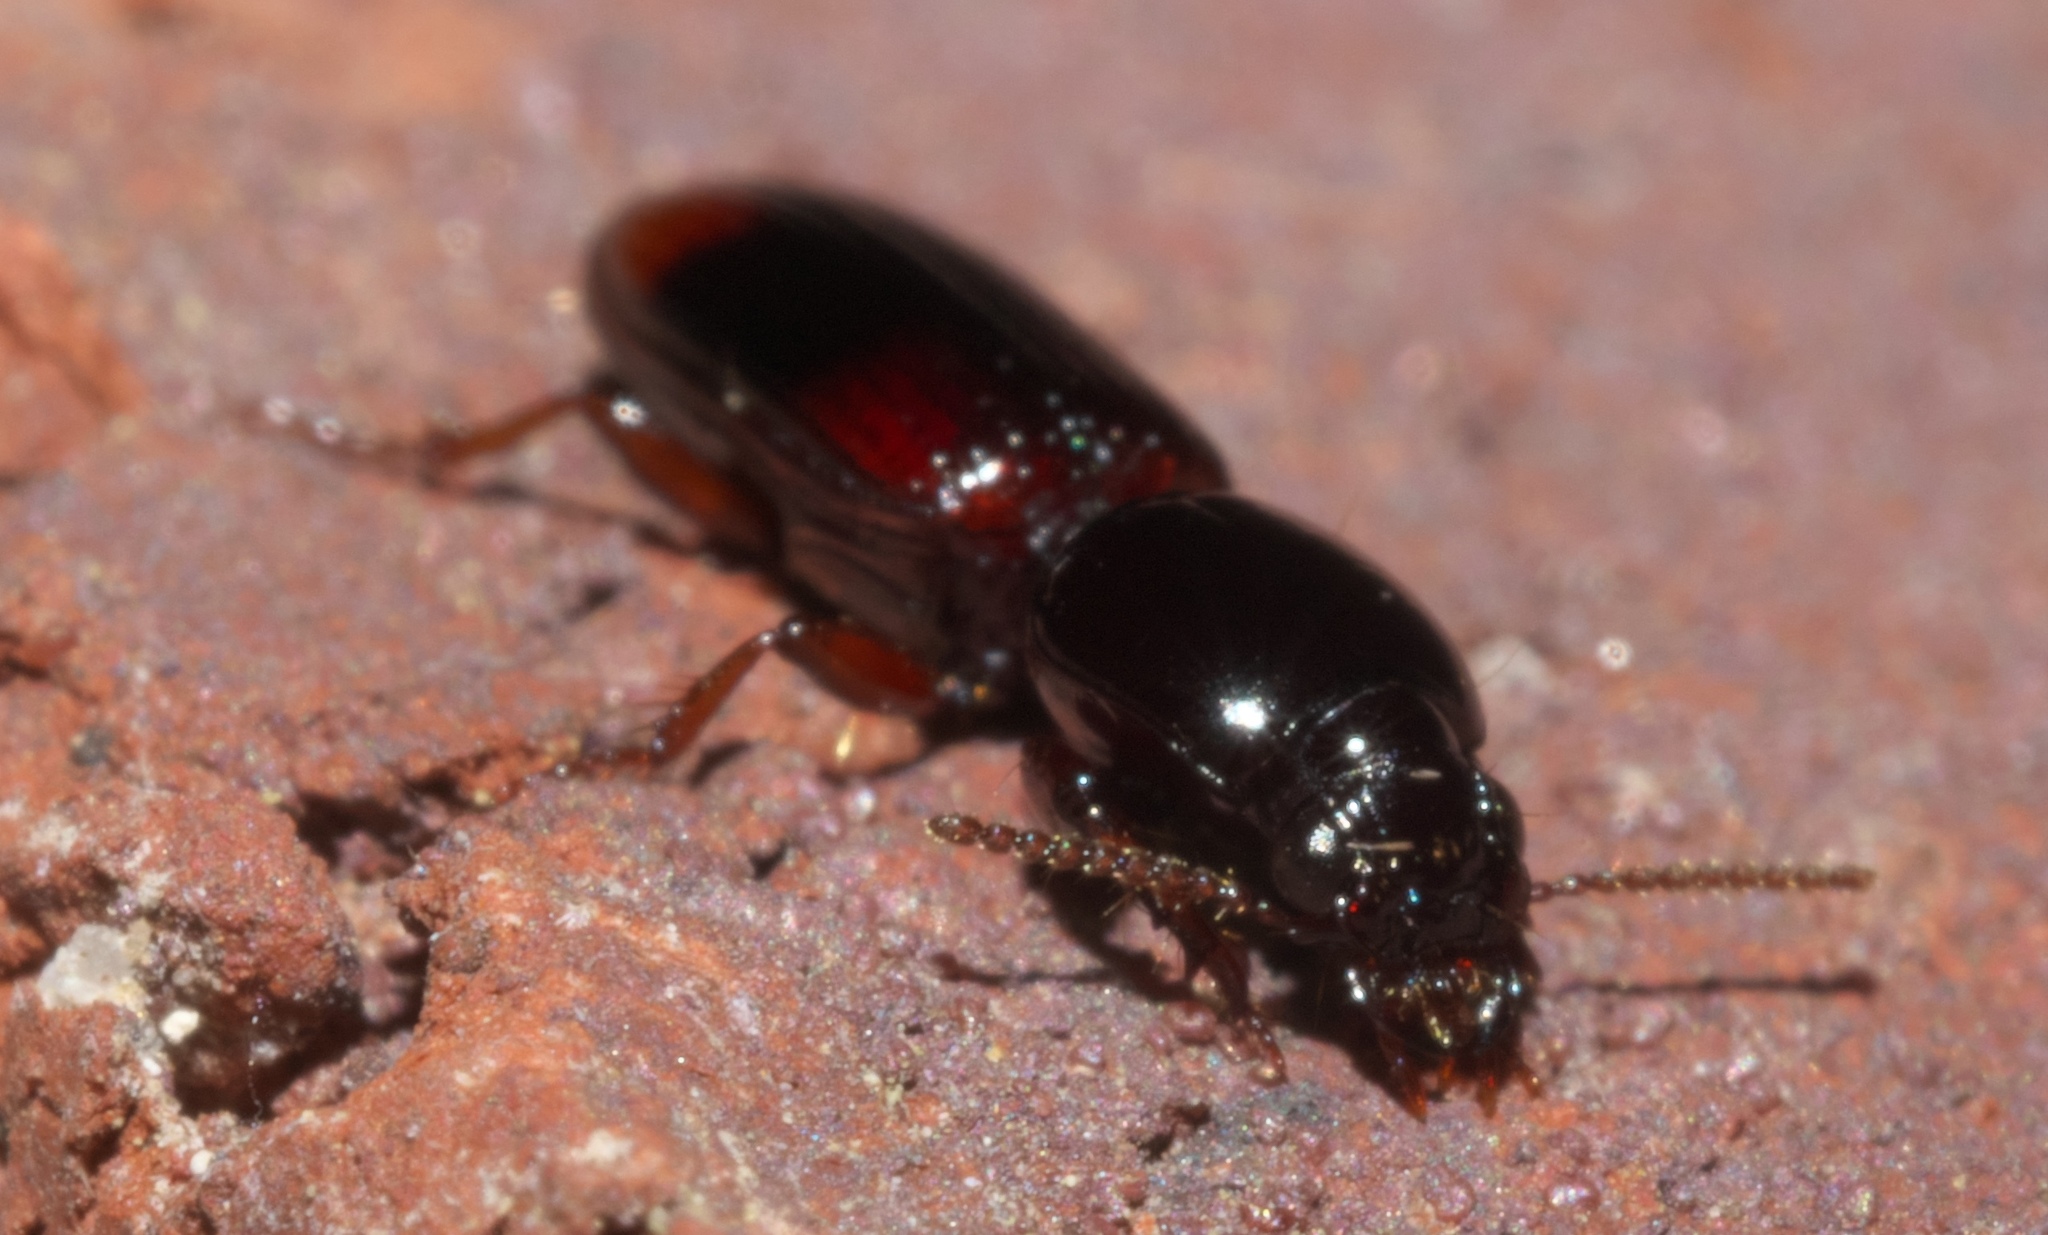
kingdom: Animalia
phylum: Arthropoda
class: Insecta
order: Coleoptera
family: Carabidae
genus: Clivina
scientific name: Clivina bipustulata
